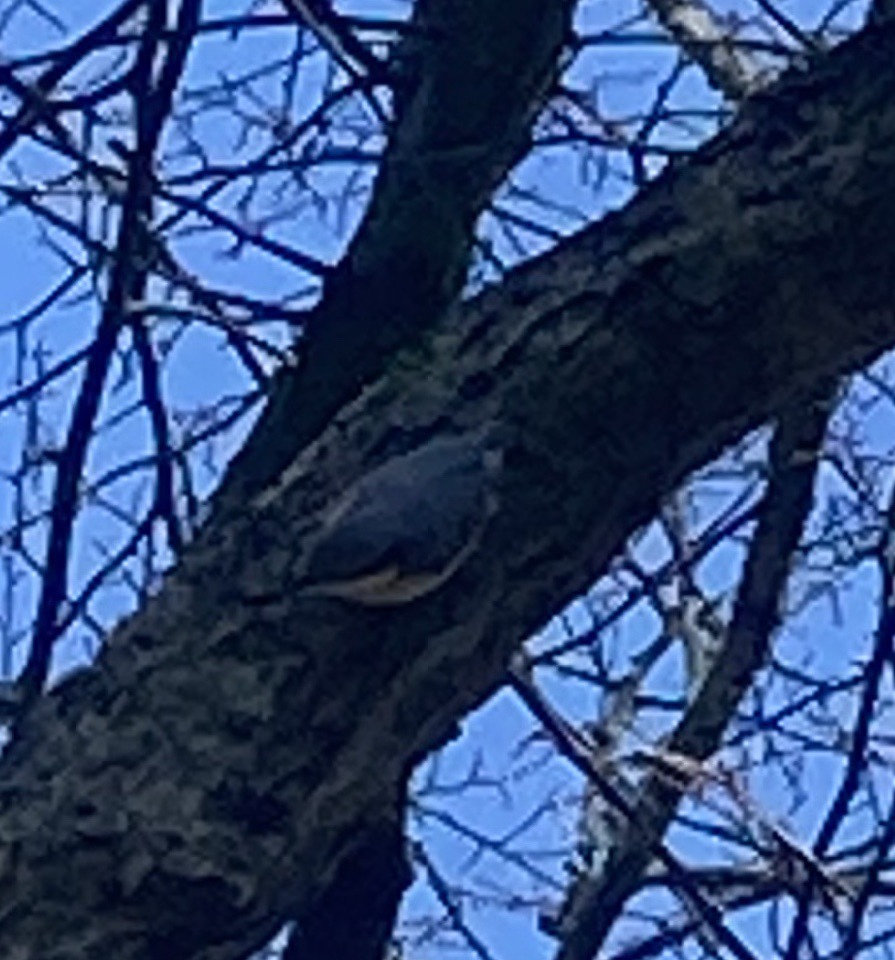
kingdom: Animalia
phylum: Chordata
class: Aves
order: Passeriformes
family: Sittidae
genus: Sitta
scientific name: Sitta europaea
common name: Eurasian nuthatch
